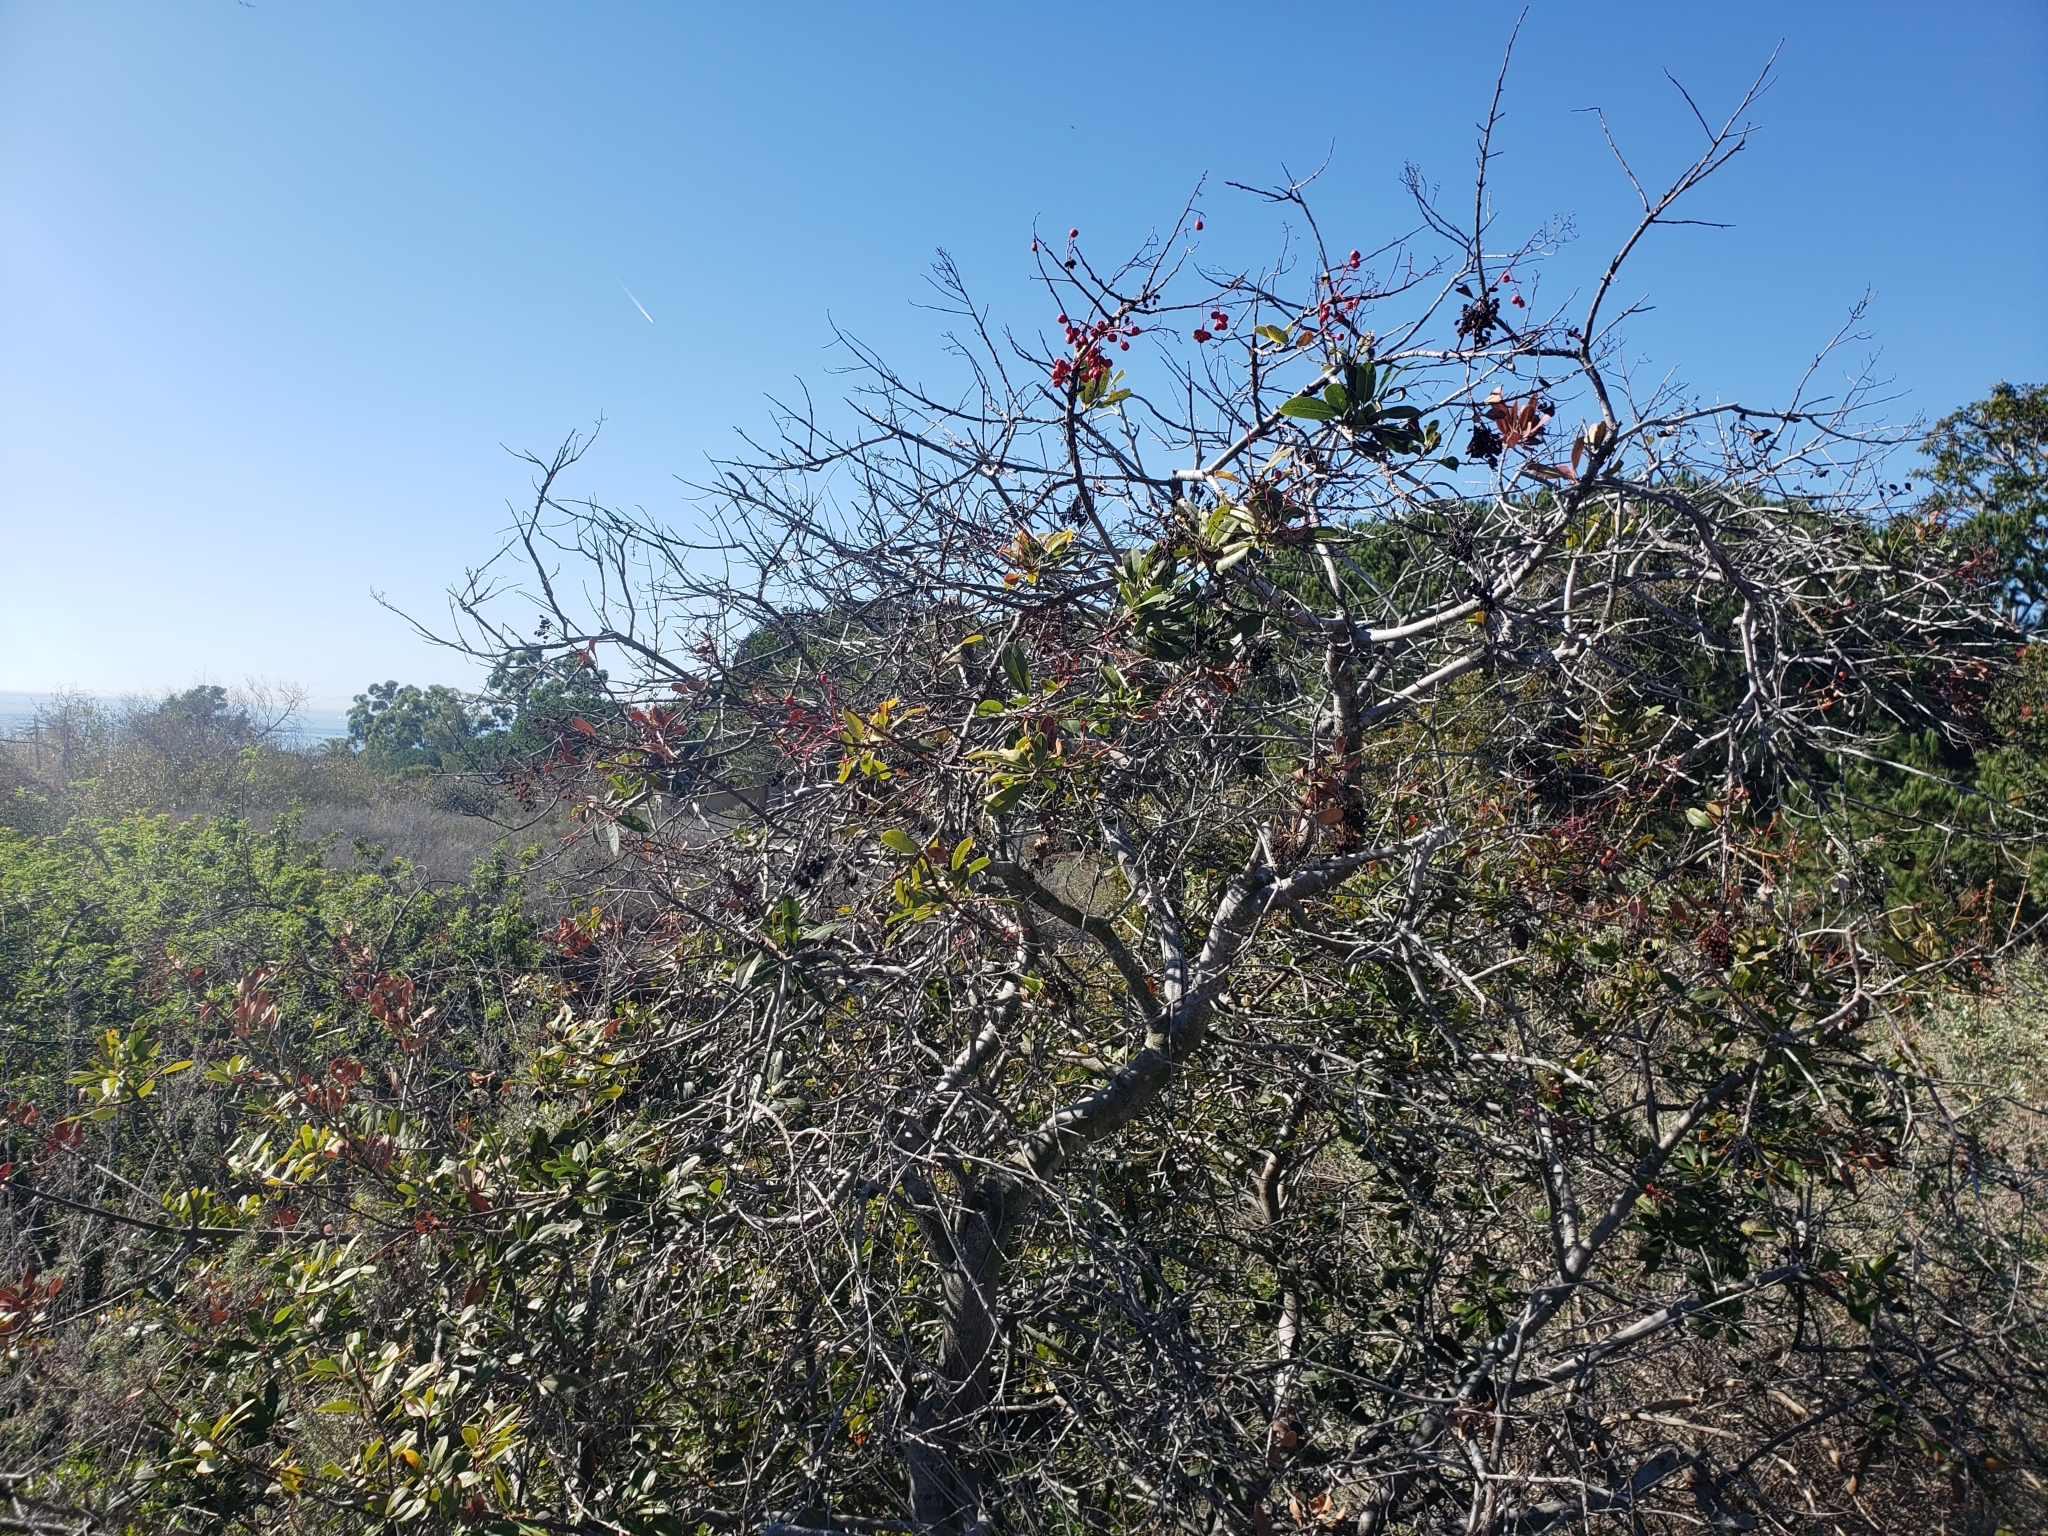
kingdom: Plantae
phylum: Tracheophyta
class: Magnoliopsida
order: Rosales
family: Rosaceae
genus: Heteromeles
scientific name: Heteromeles arbutifolia
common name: California-holly
